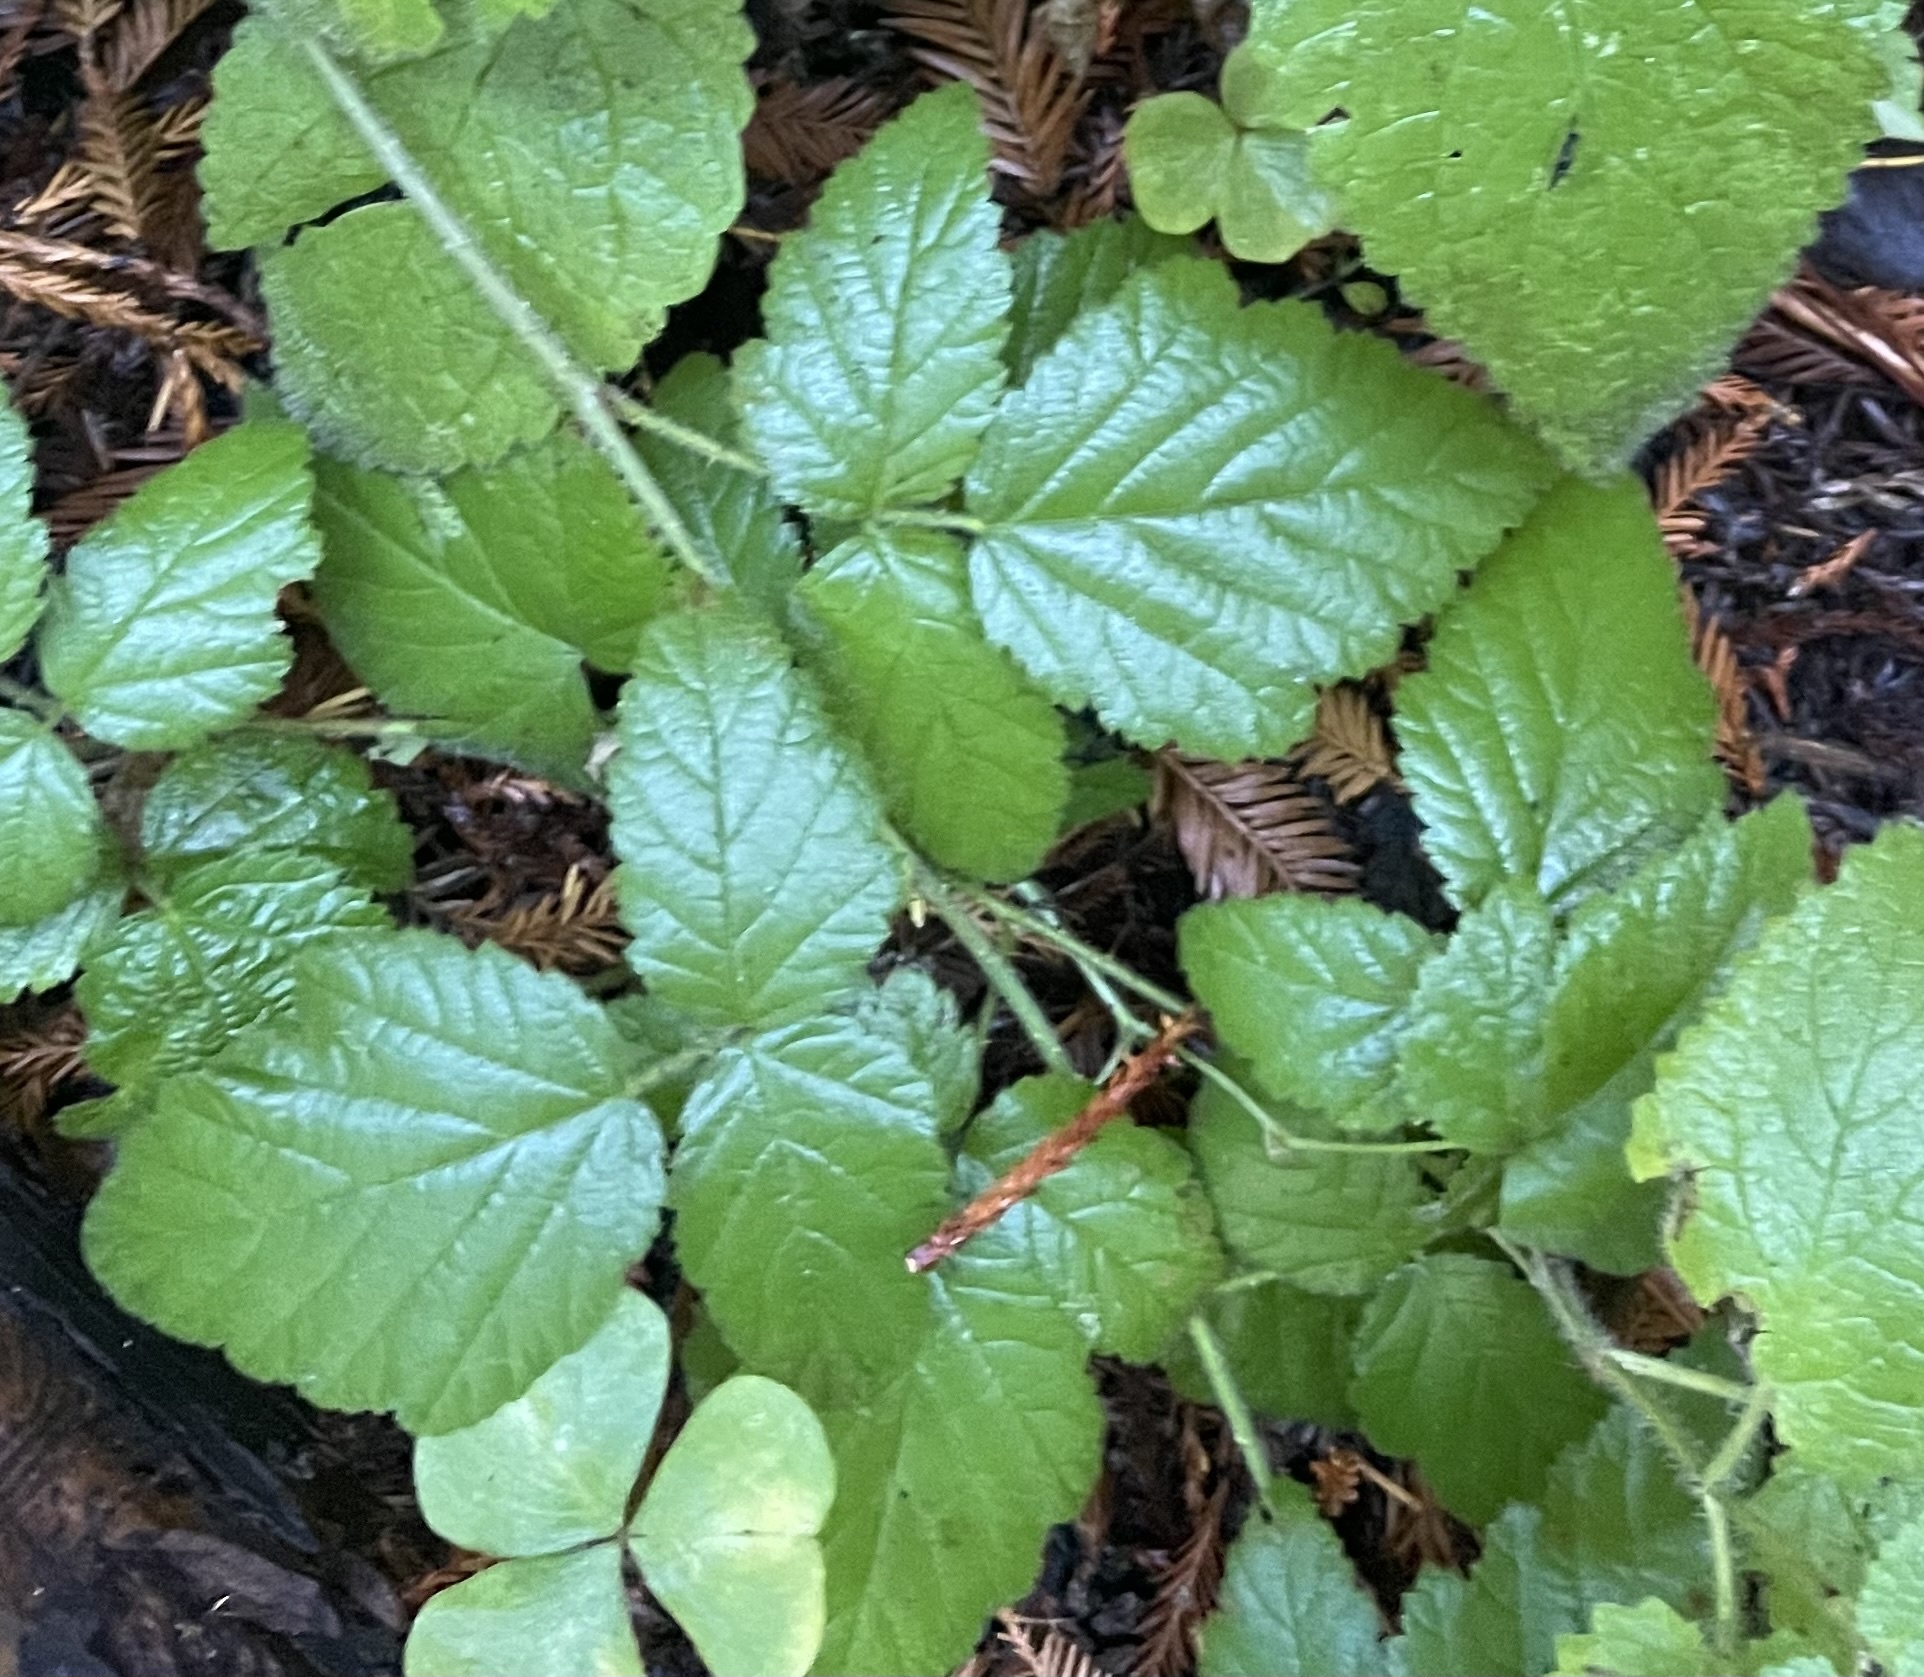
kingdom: Plantae
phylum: Tracheophyta
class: Magnoliopsida
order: Rosales
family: Rosaceae
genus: Rubus
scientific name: Rubus ursinus
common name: Pacific blackberry
